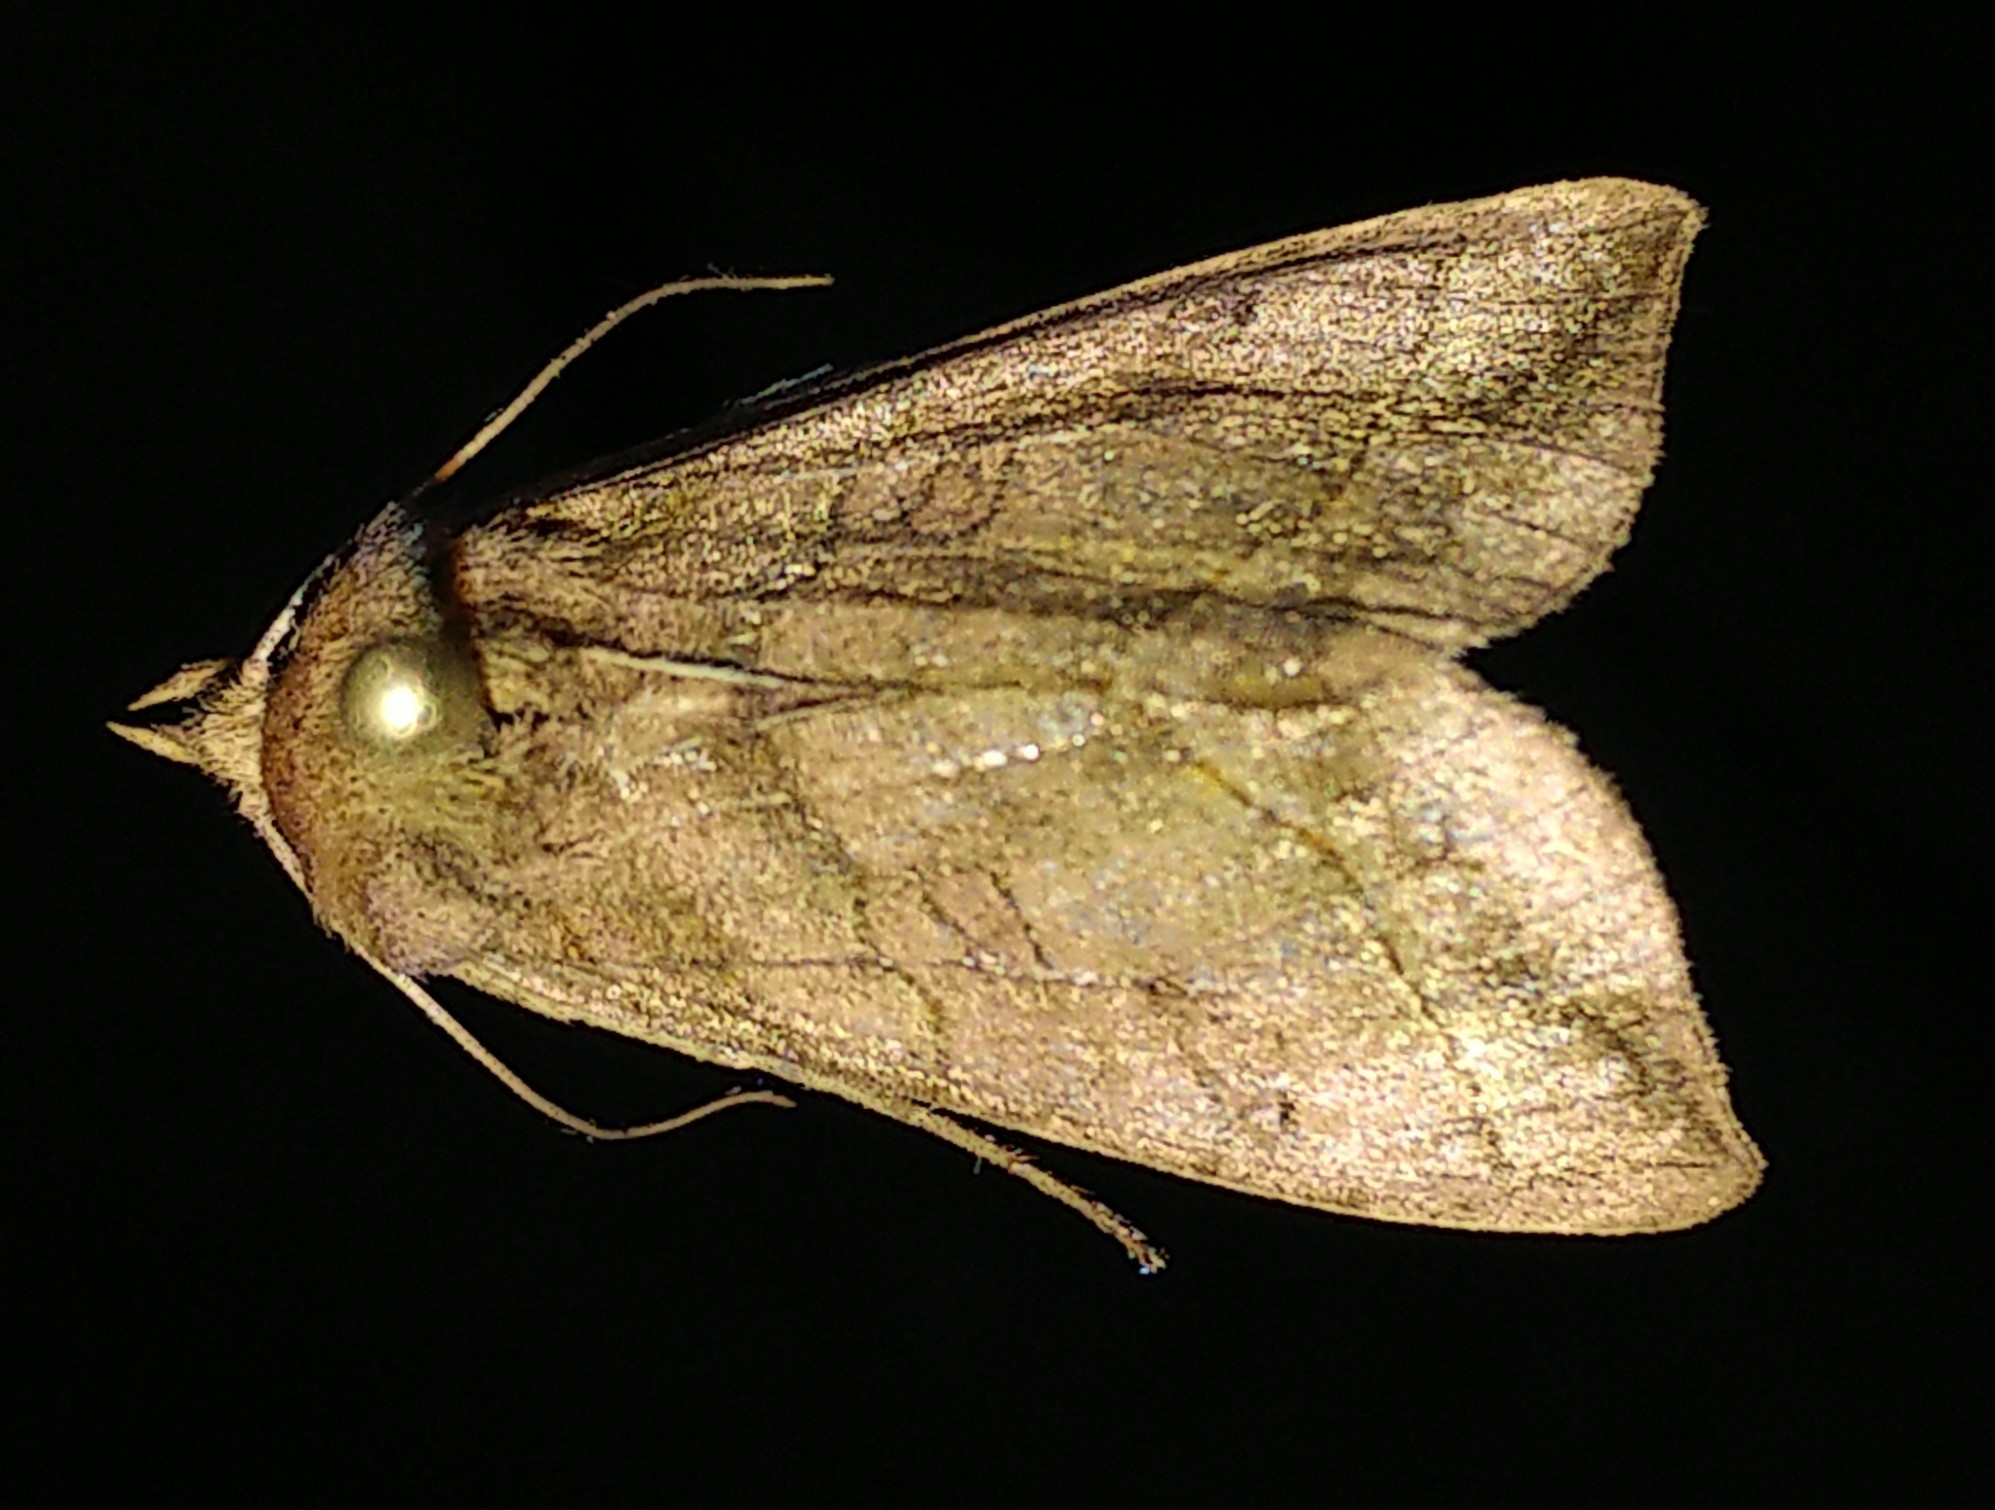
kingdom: Animalia
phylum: Arthropoda
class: Insecta
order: Lepidoptera
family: Noctuidae
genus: Diachrysia
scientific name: Diachrysia aereoides
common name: Dark-spotted looper moth
